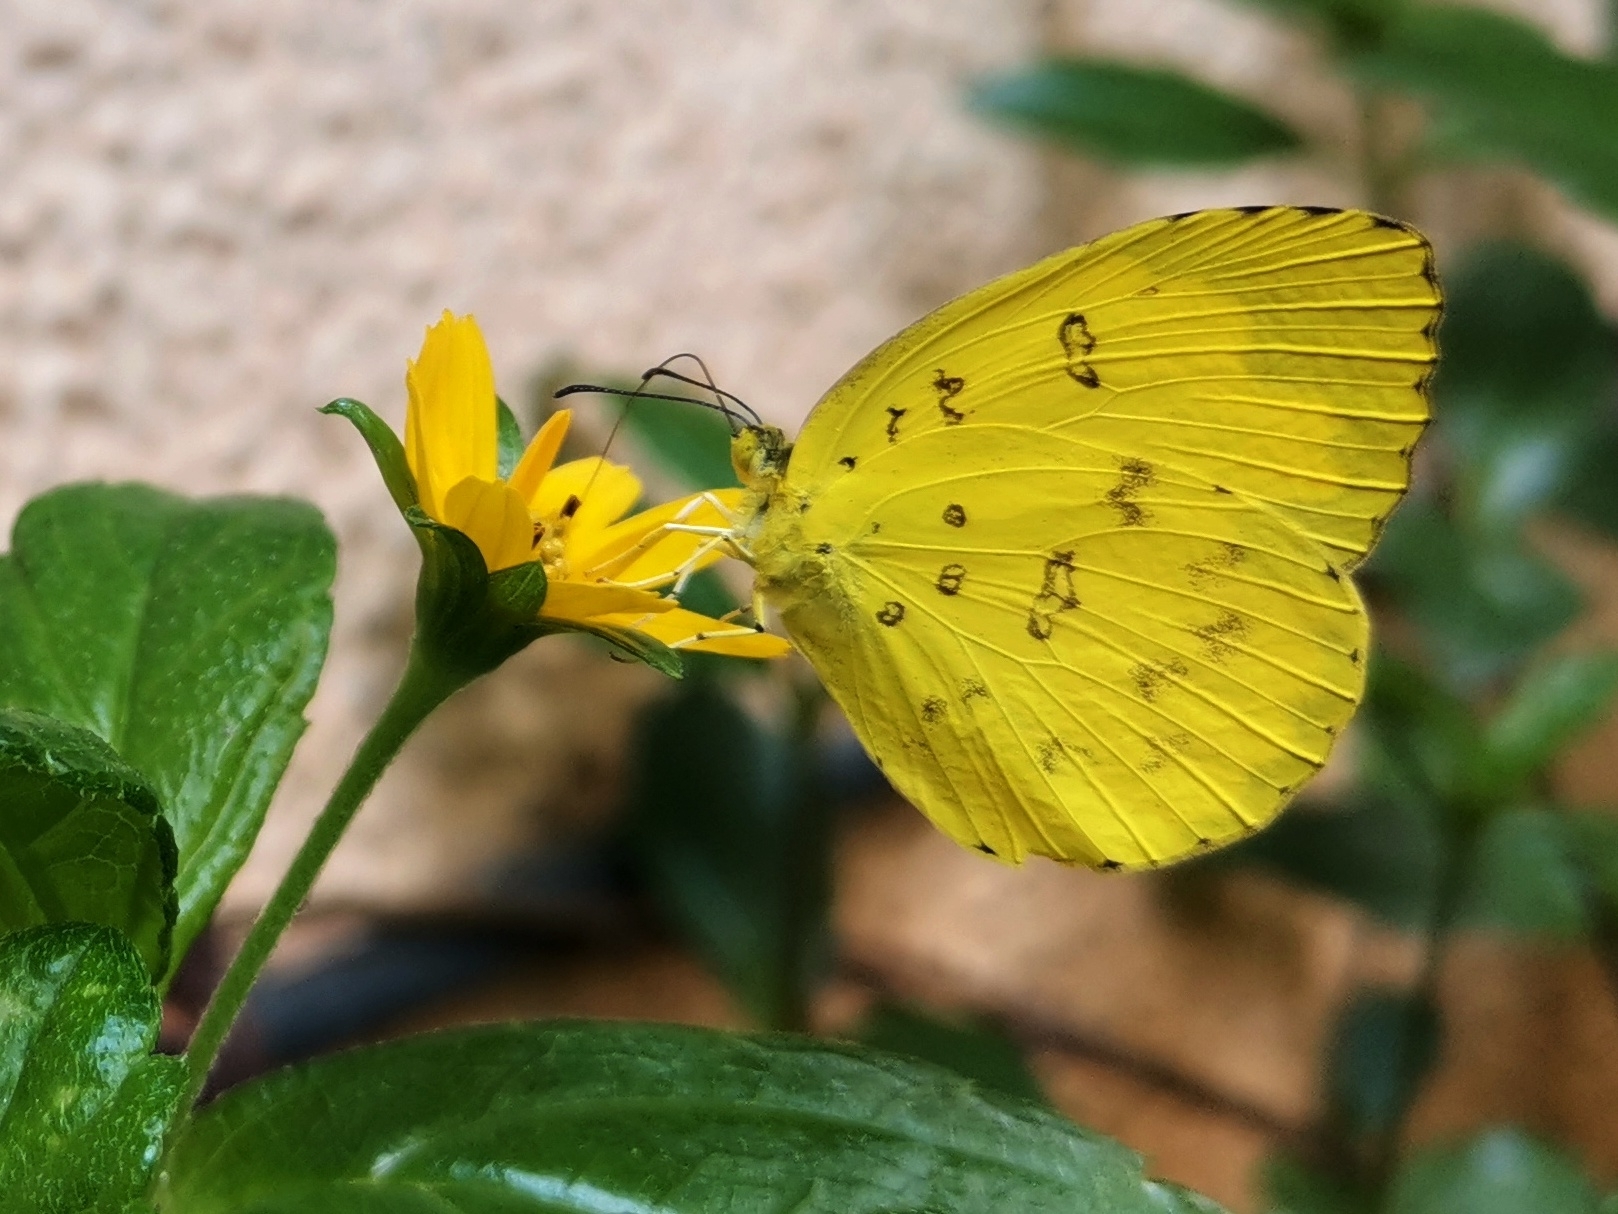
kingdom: Animalia
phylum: Arthropoda
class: Insecta
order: Lepidoptera
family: Pieridae
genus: Eurema
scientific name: Eurema blanda
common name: Three-spot grass yellow
